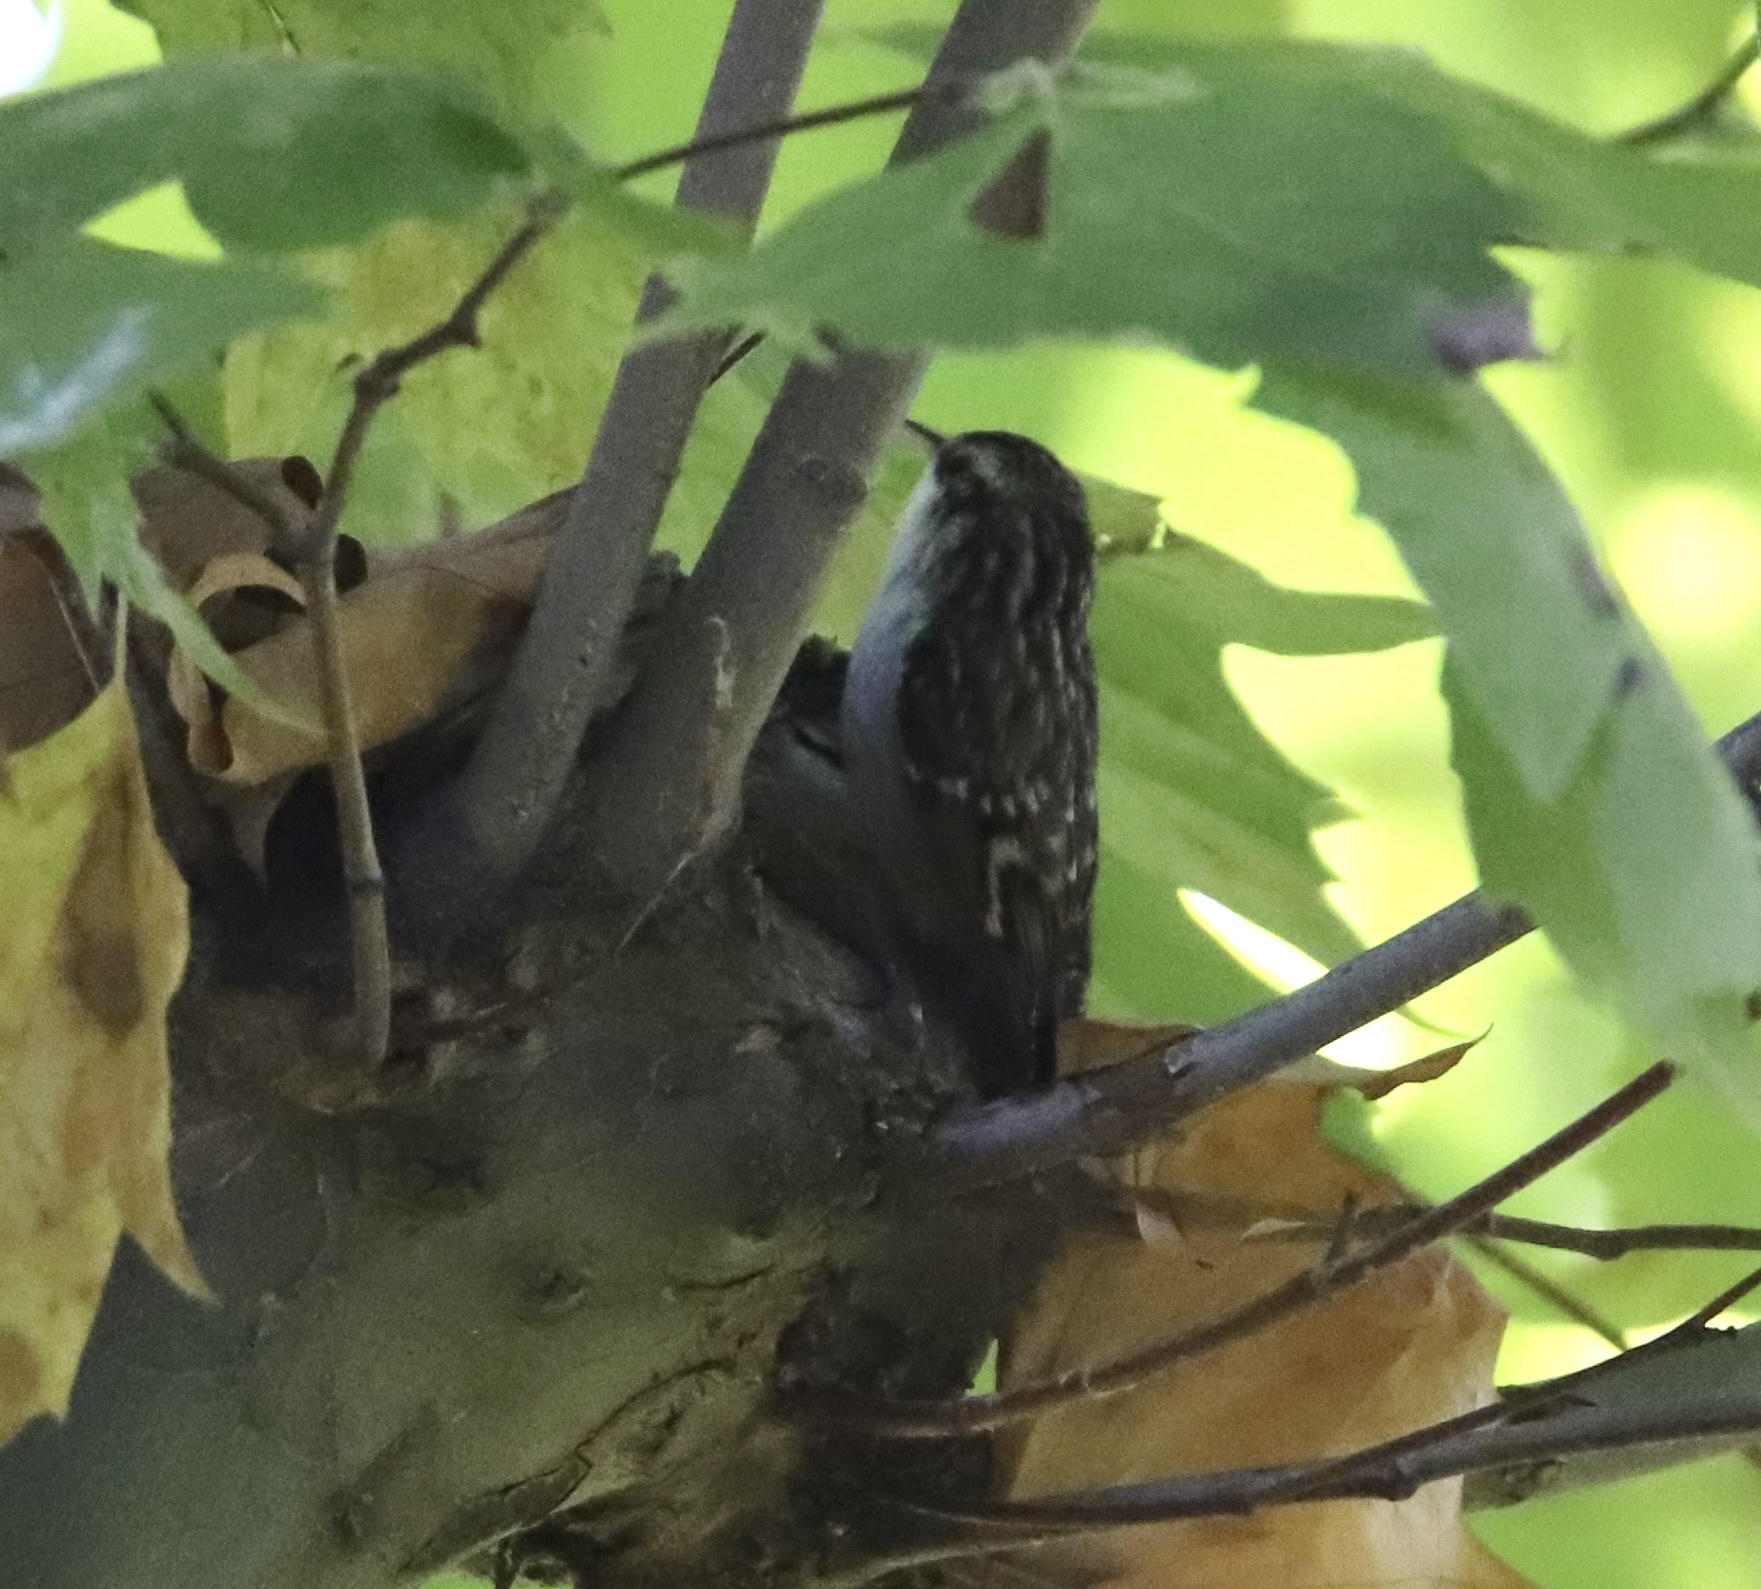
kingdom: Animalia
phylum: Chordata
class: Aves
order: Passeriformes
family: Certhiidae
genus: Certhia
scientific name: Certhia brachydactyla
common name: Short-toed treecreeper
